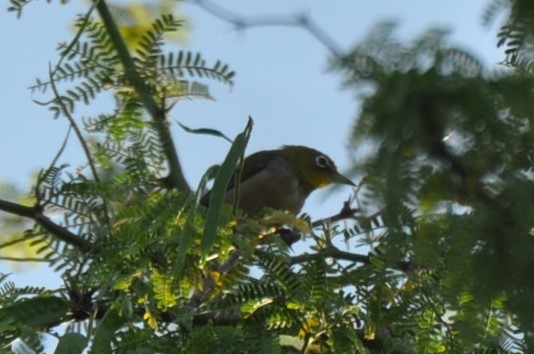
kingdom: Animalia
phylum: Chordata
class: Aves
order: Passeriformes
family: Zosteropidae
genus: Zosterops
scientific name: Zosterops japonicus
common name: Japanese white-eye
